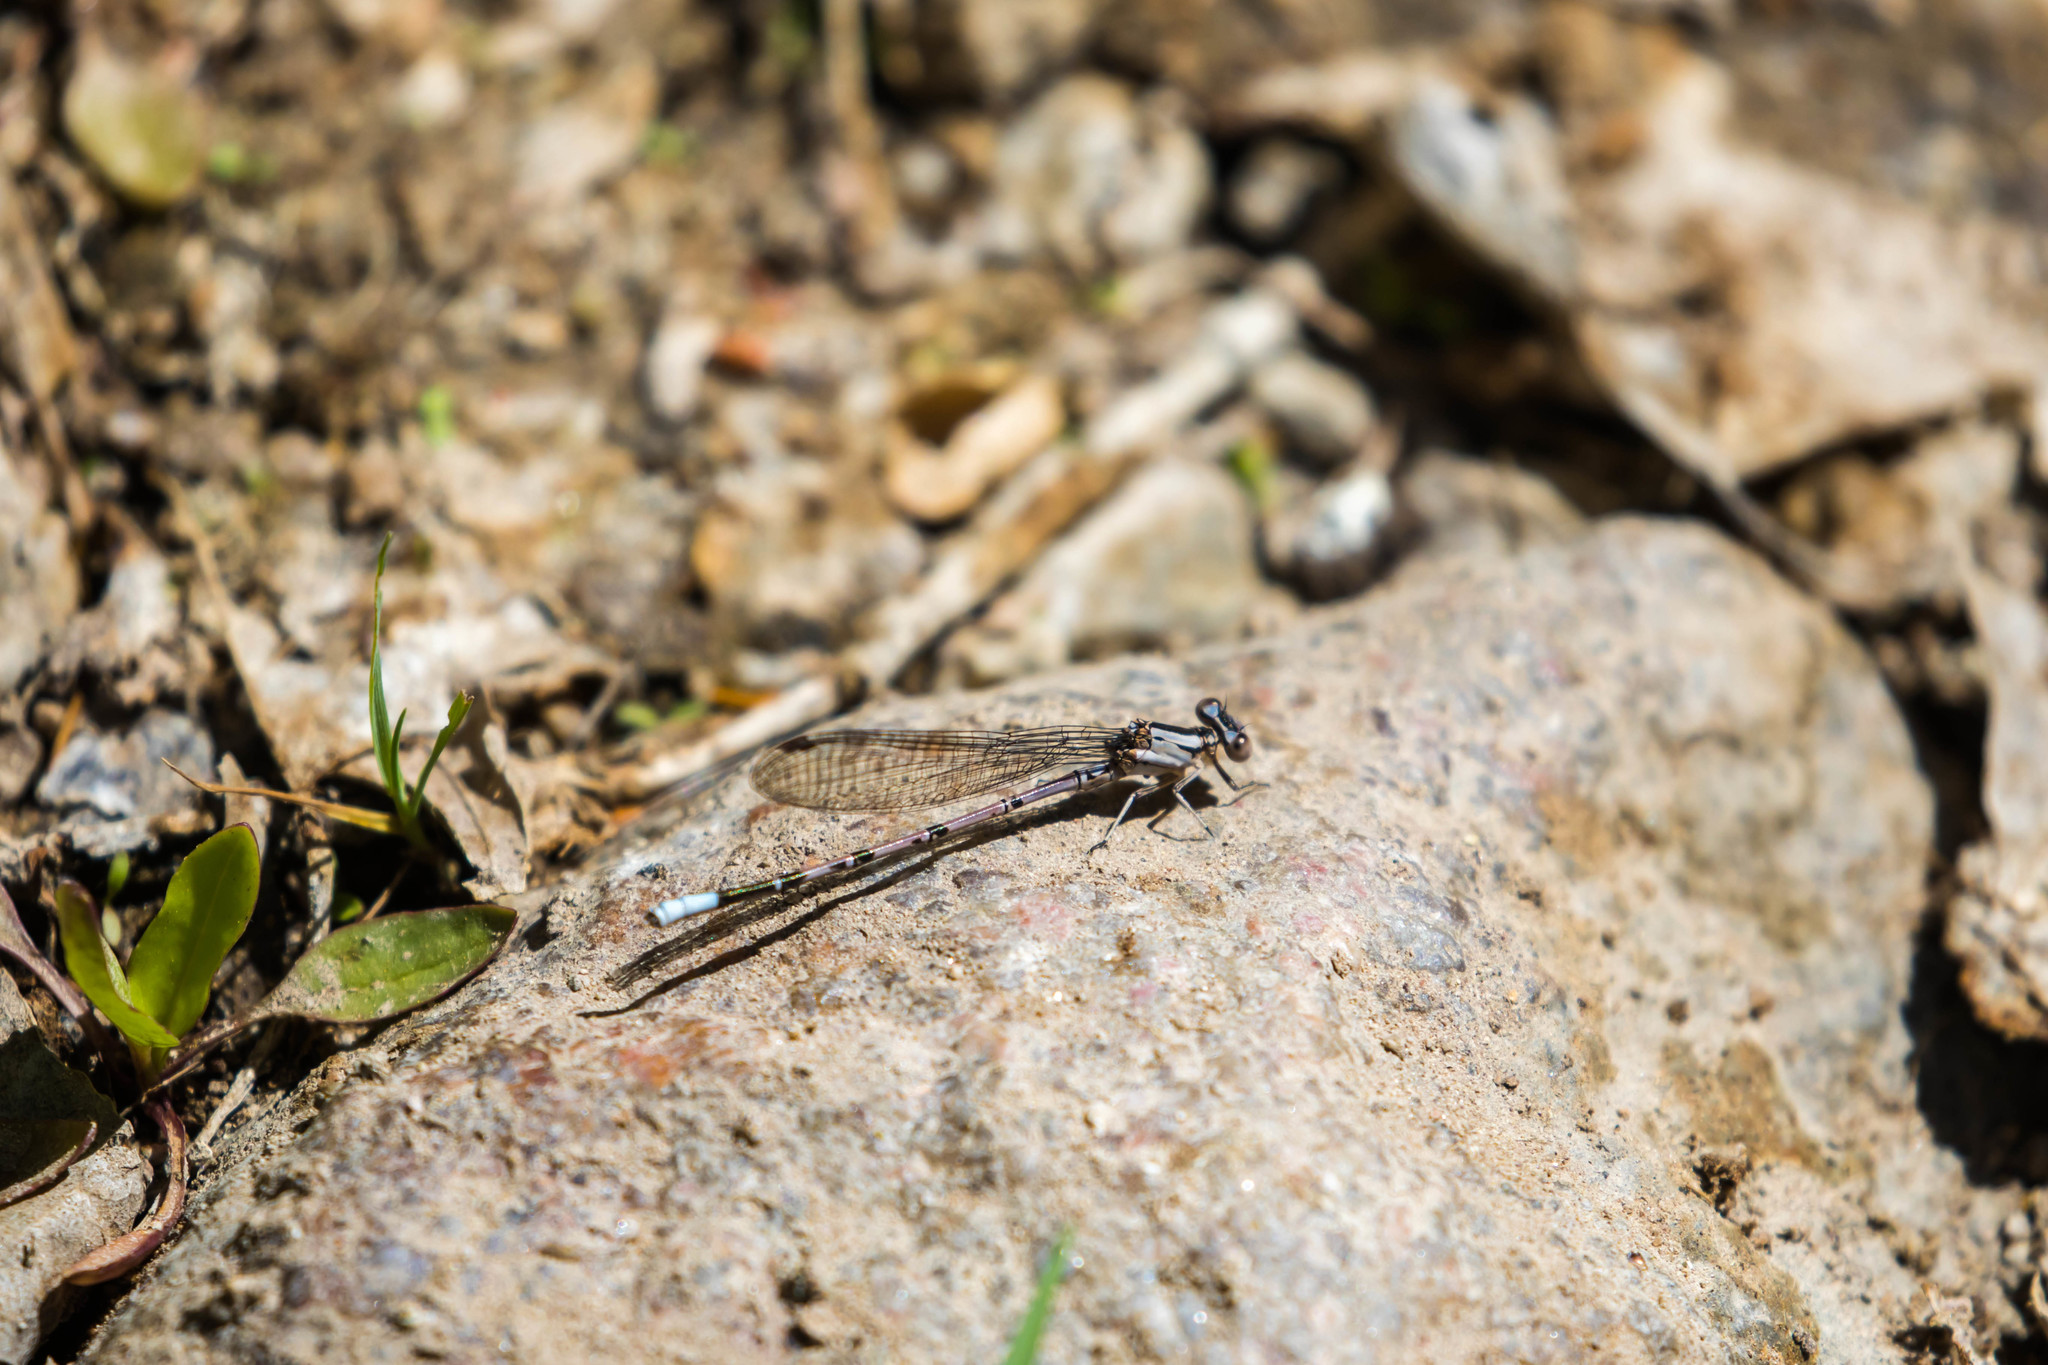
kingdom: Animalia
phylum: Arthropoda
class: Insecta
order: Odonata
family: Coenagrionidae
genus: Argia
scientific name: Argia funebris
